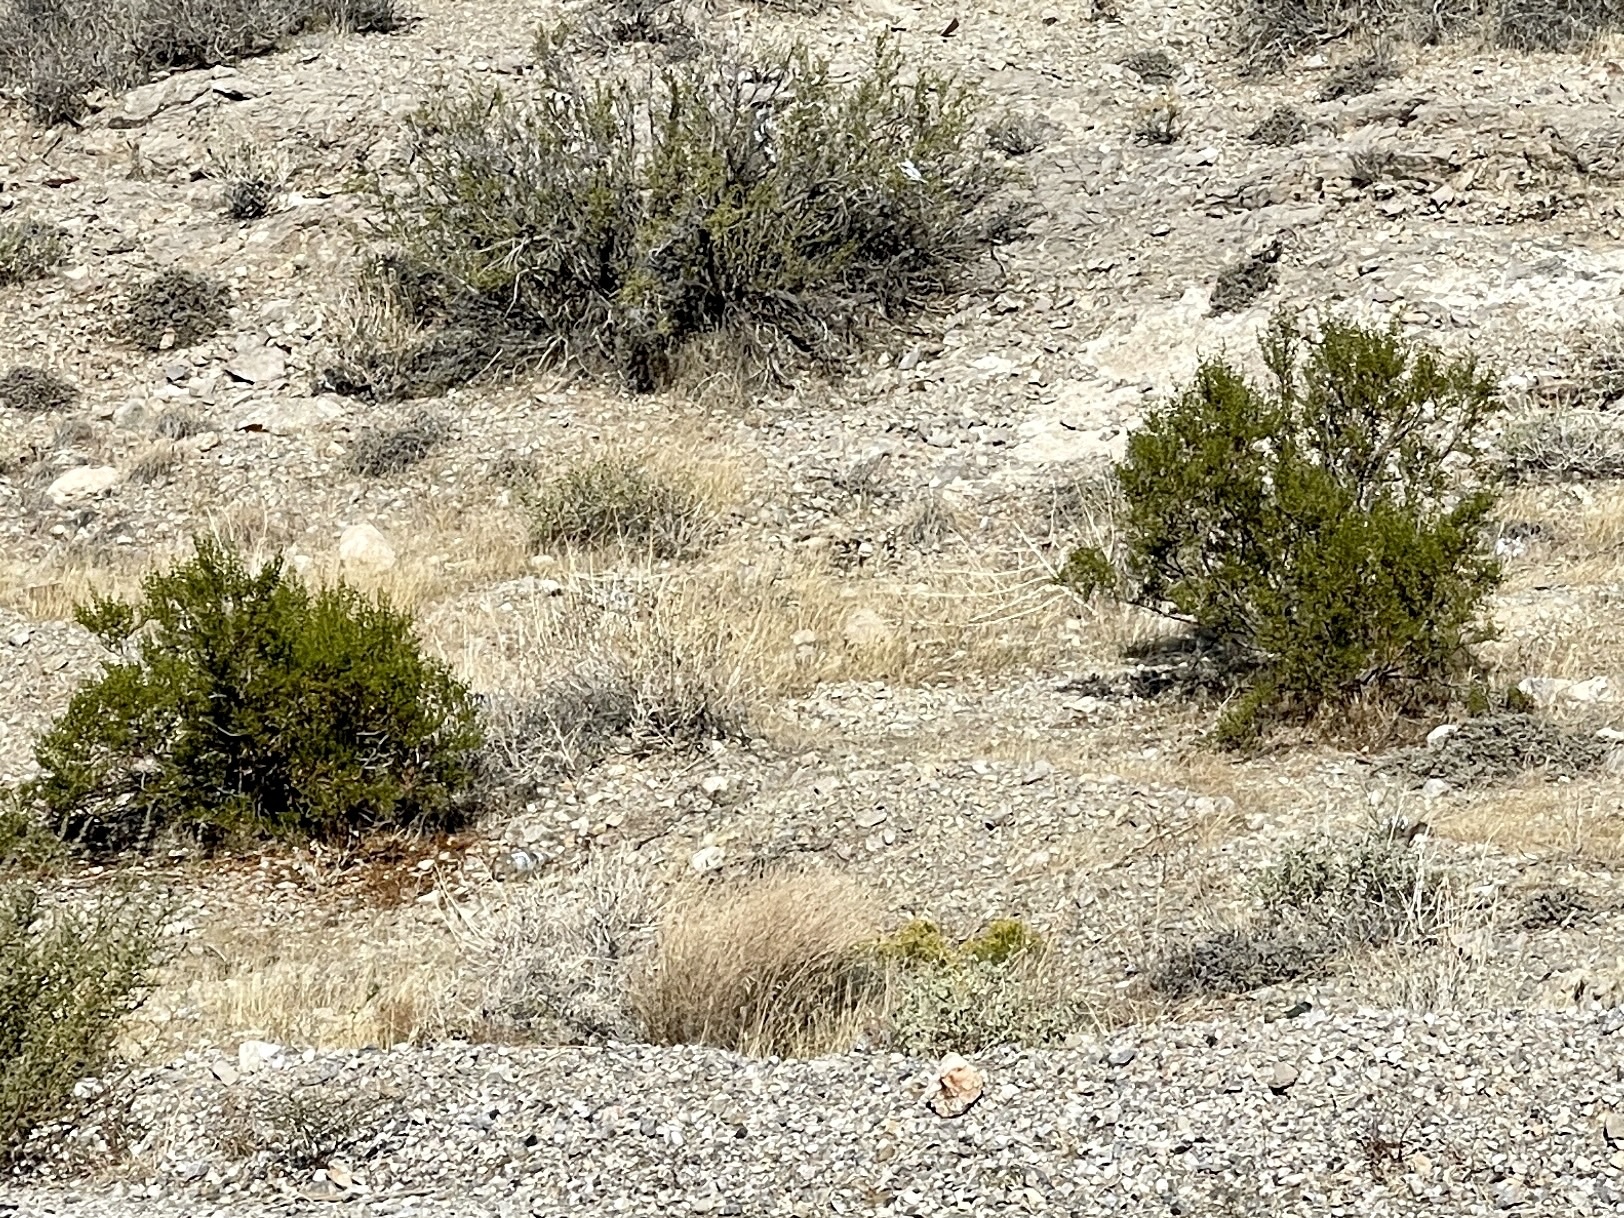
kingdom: Plantae
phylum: Tracheophyta
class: Magnoliopsida
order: Zygophyllales
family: Zygophyllaceae
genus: Larrea
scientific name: Larrea tridentata
